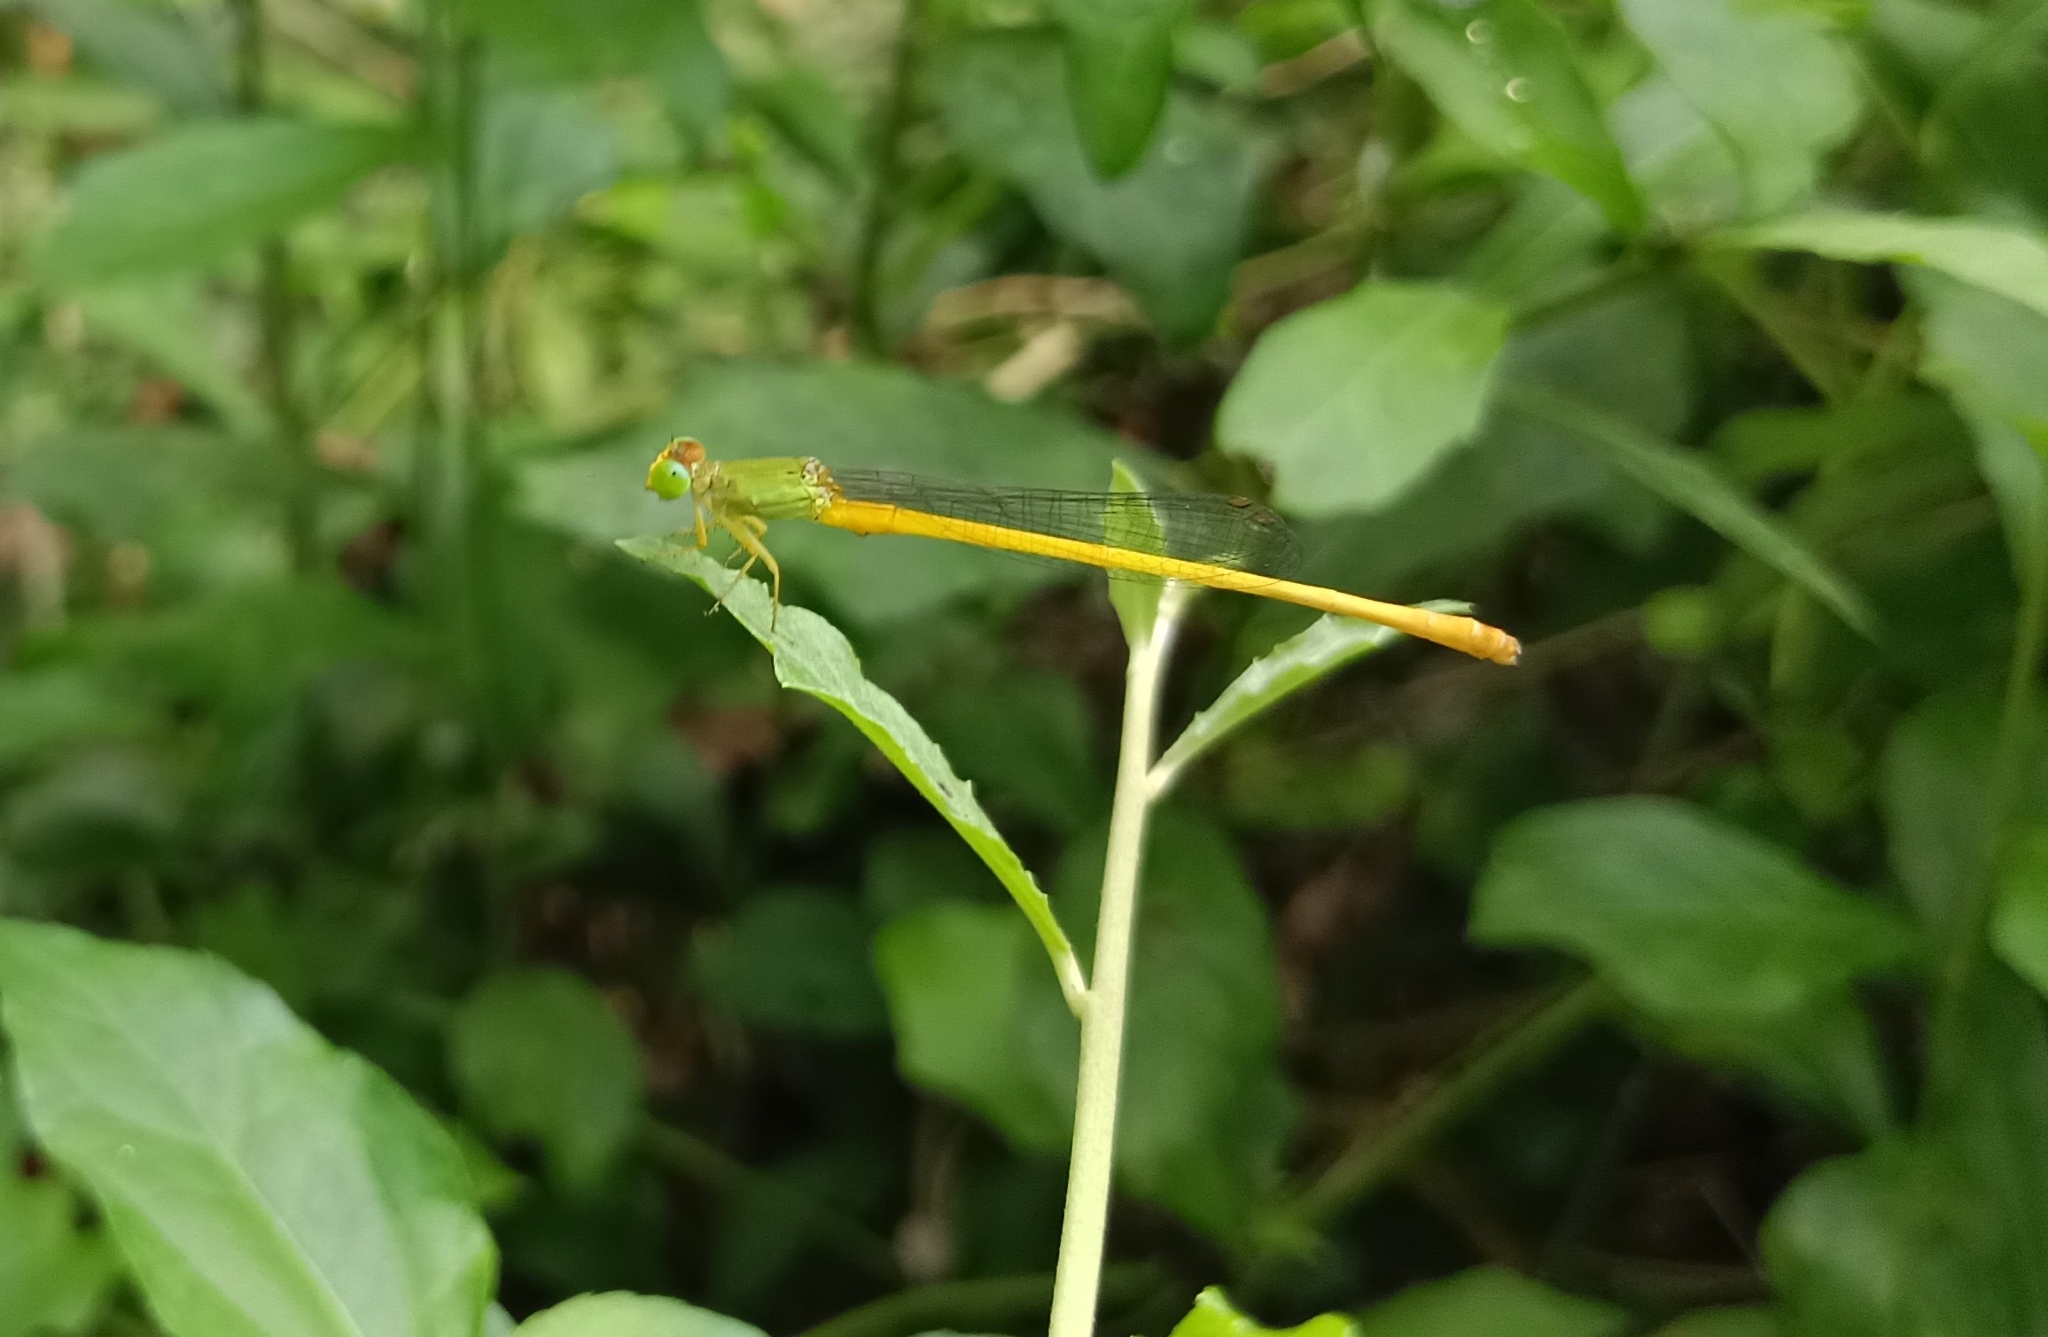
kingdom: Animalia
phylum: Arthropoda
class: Insecta
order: Odonata
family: Coenagrionidae
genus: Ceriagrion
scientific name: Ceriagrion coromandelianum
